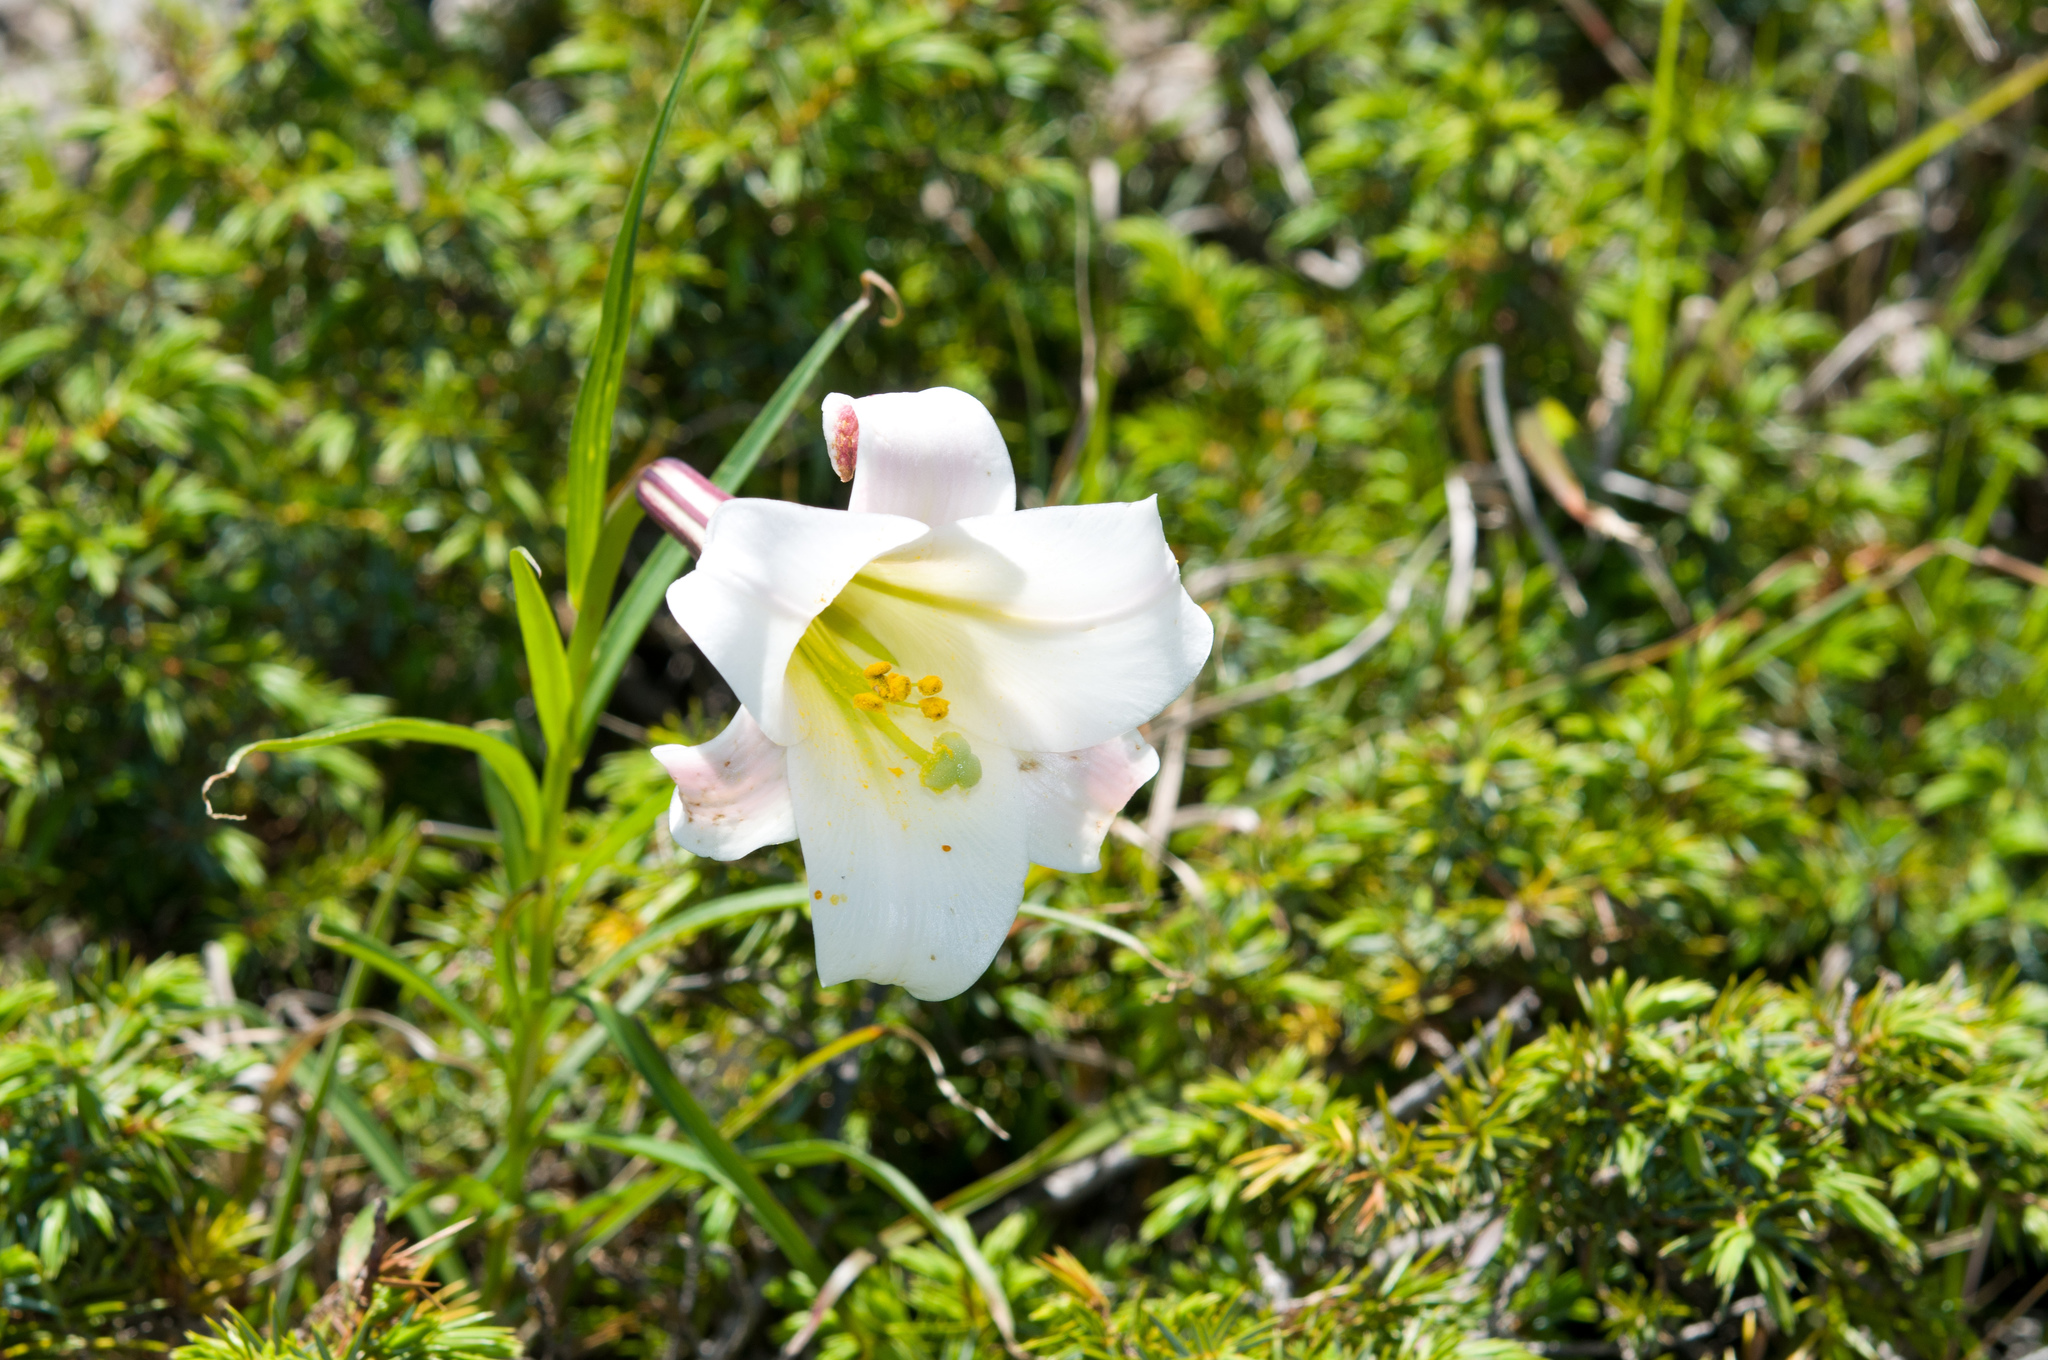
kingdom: Plantae
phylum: Tracheophyta
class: Liliopsida
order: Liliales
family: Liliaceae
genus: Lilium
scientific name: Lilium formosanum
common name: Formosa lily
